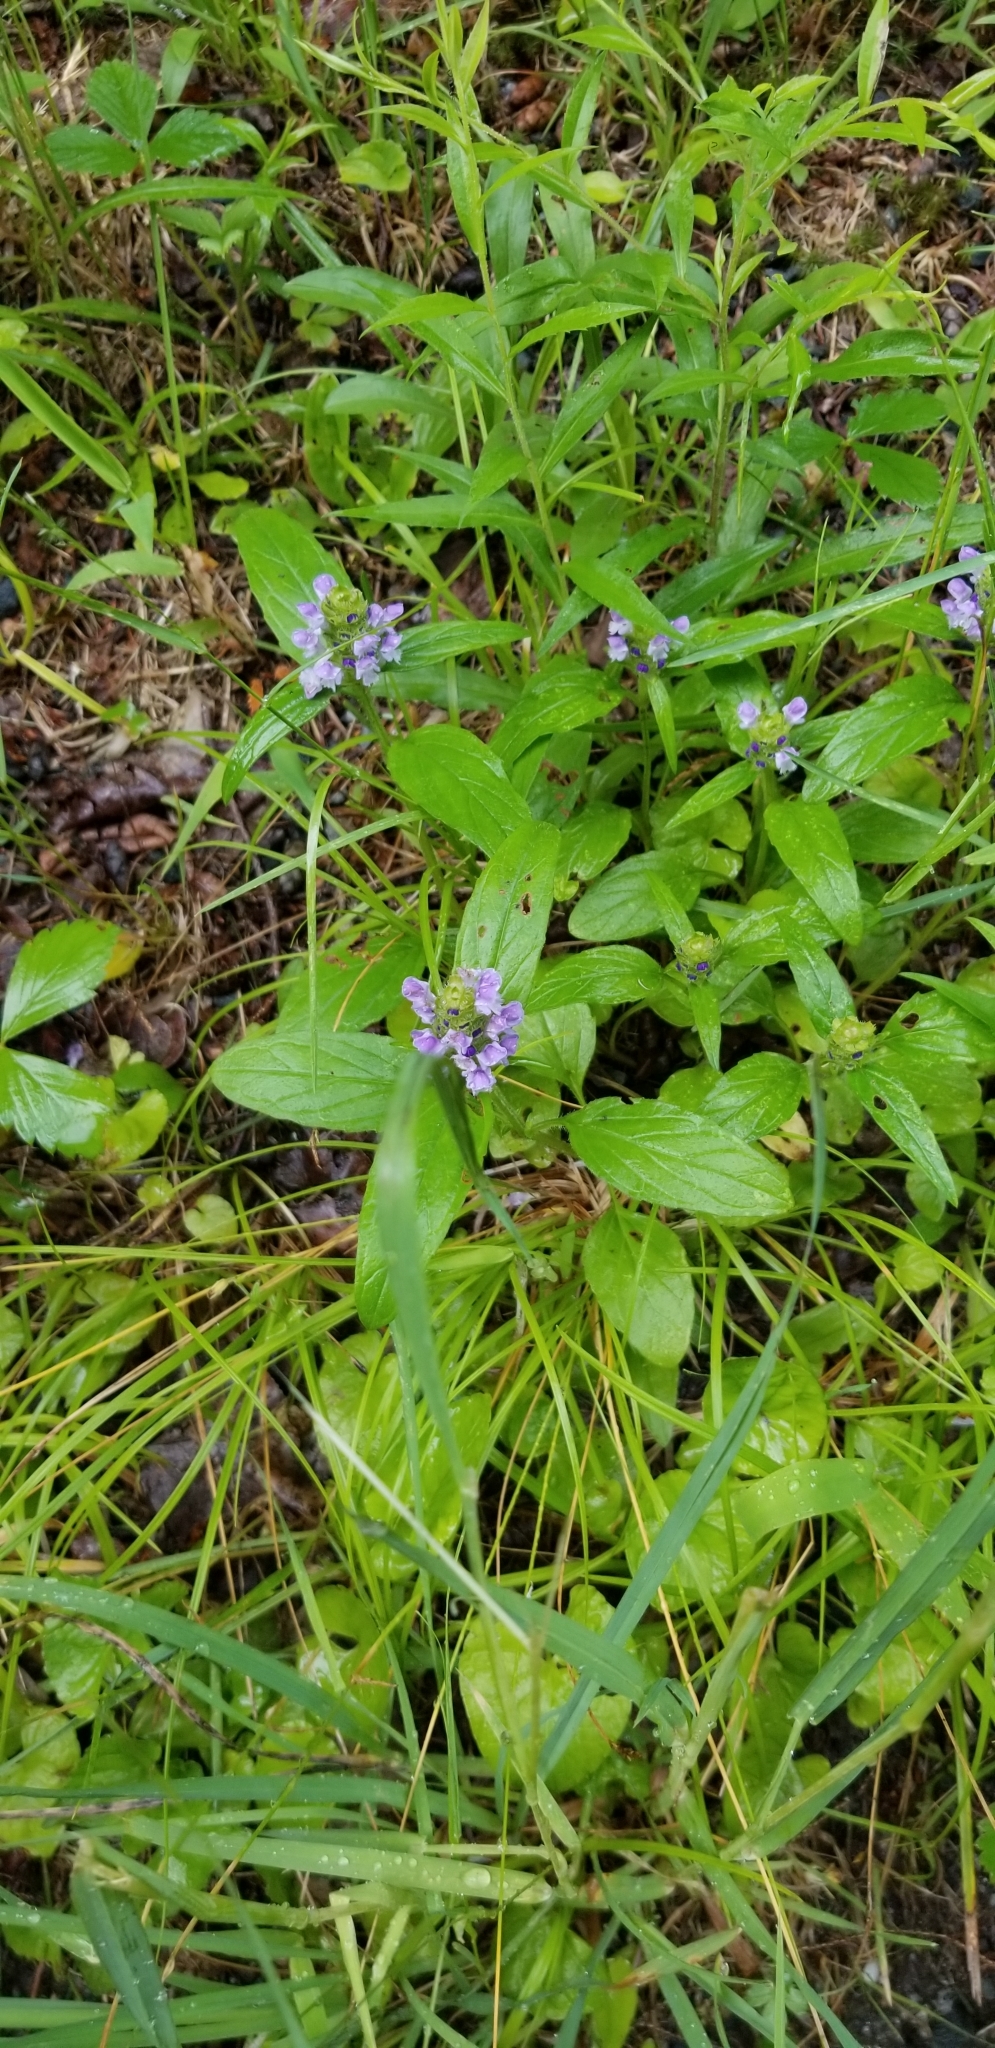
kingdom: Plantae
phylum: Tracheophyta
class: Magnoliopsida
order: Lamiales
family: Lamiaceae
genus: Prunella
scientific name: Prunella vulgaris
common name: Heal-all
